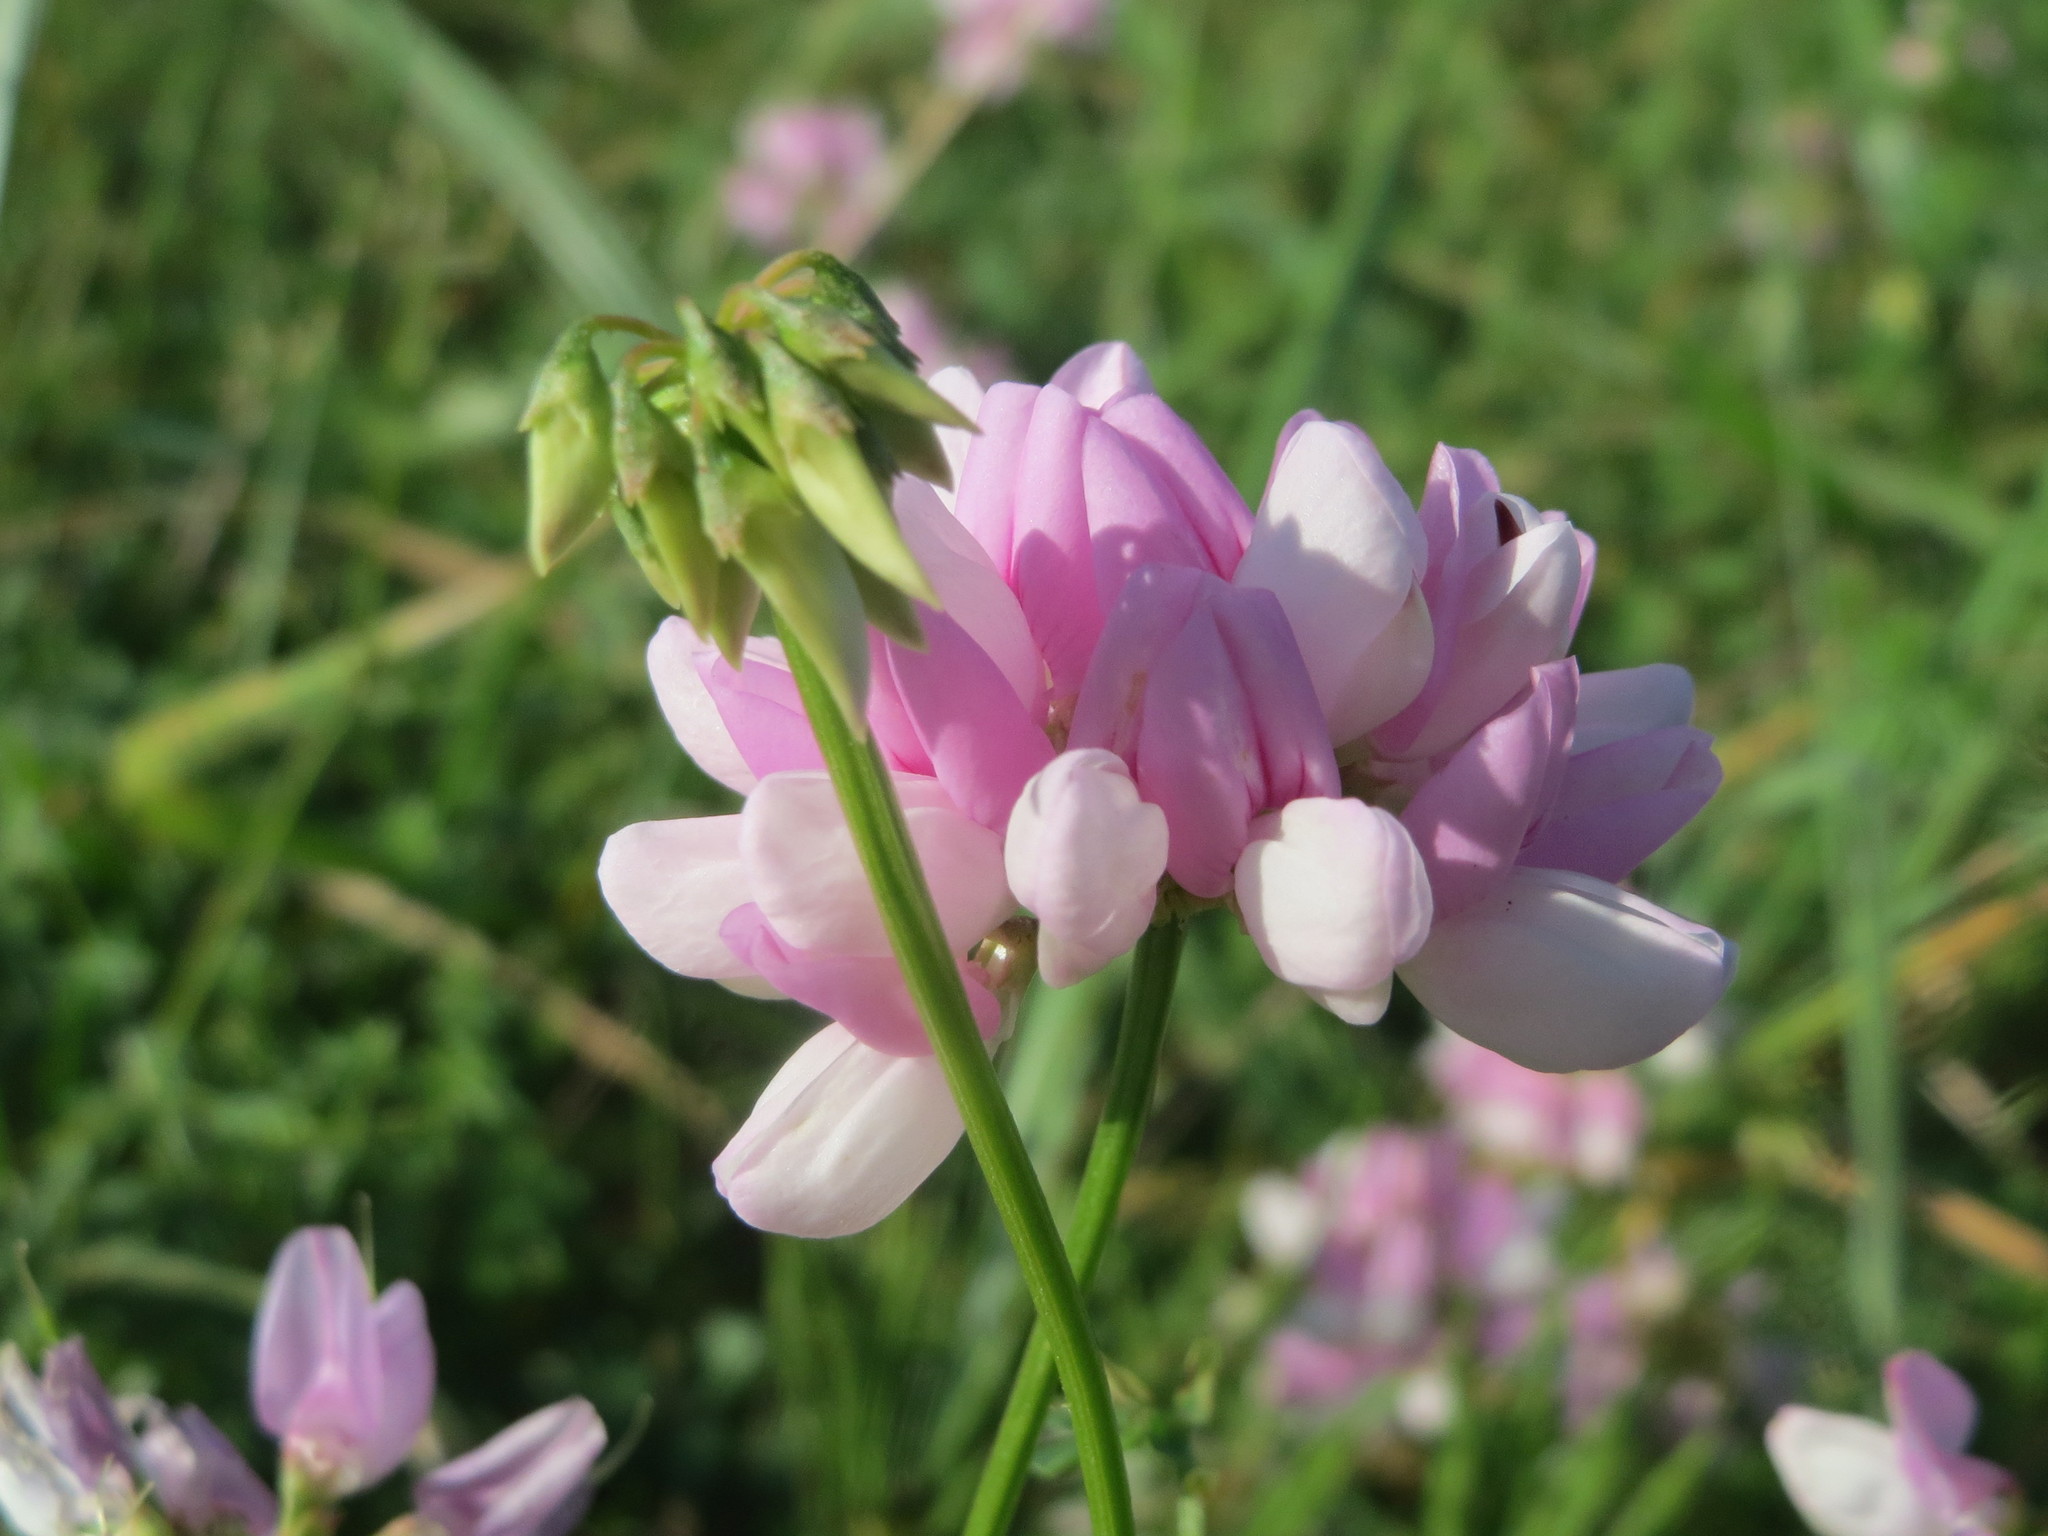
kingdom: Plantae
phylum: Tracheophyta
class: Magnoliopsida
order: Fabales
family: Fabaceae
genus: Coronilla
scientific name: Coronilla varia
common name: Crownvetch
